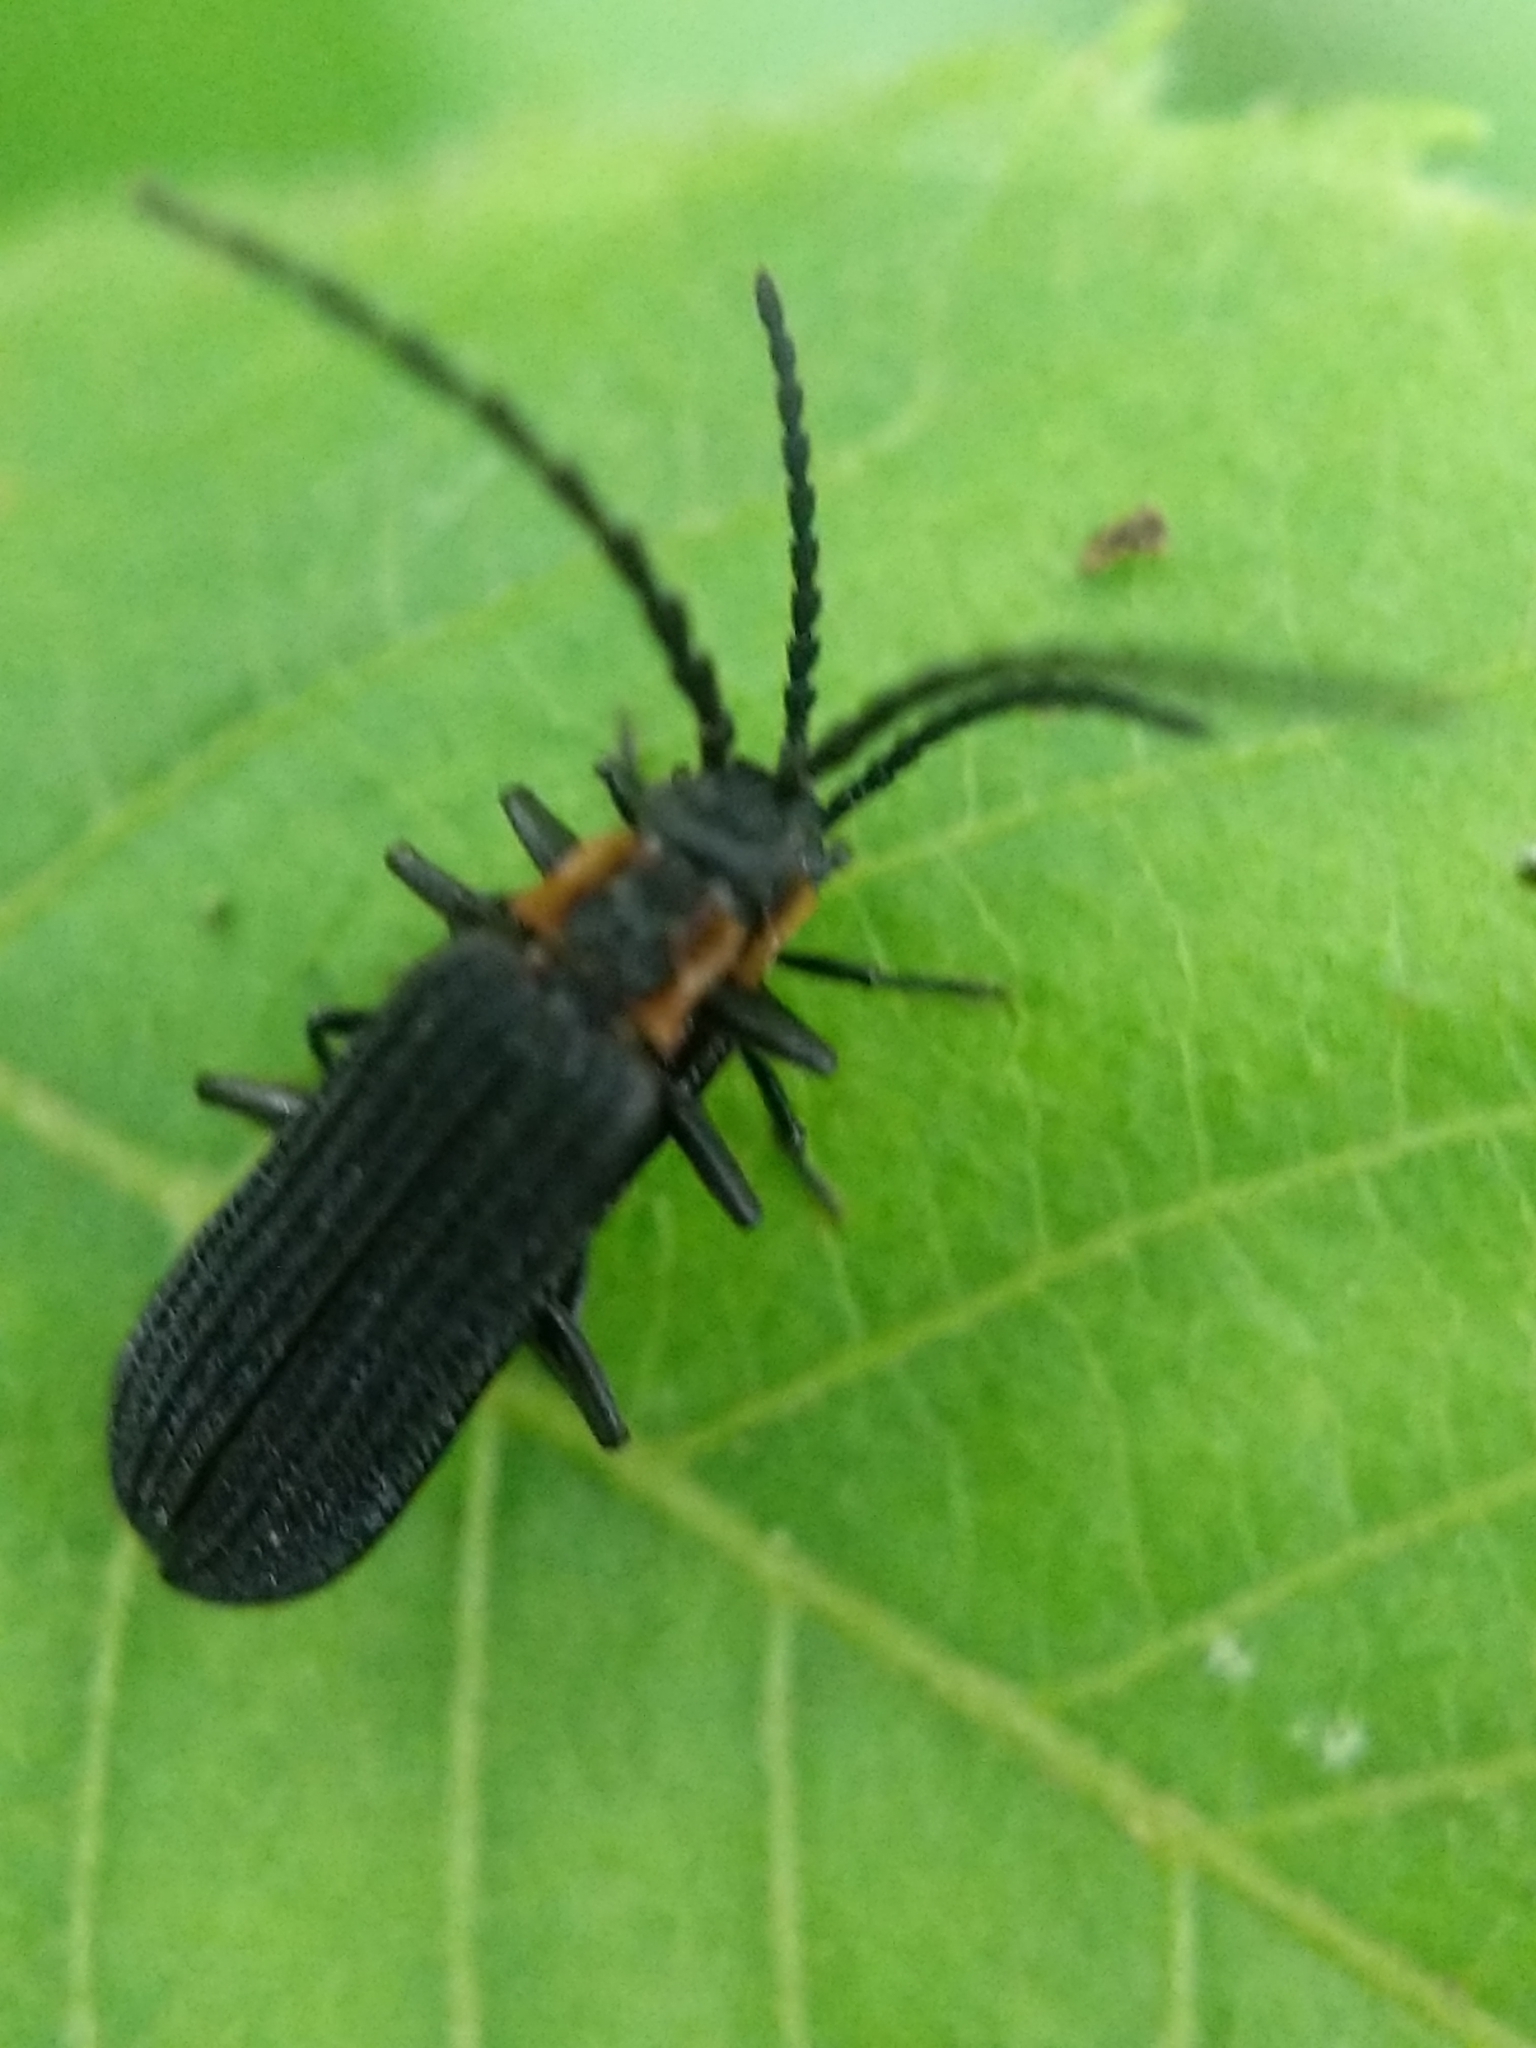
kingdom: Animalia
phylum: Arthropoda
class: Insecta
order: Coleoptera
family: Lycidae
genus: Erotides
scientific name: Erotides sculptilis
